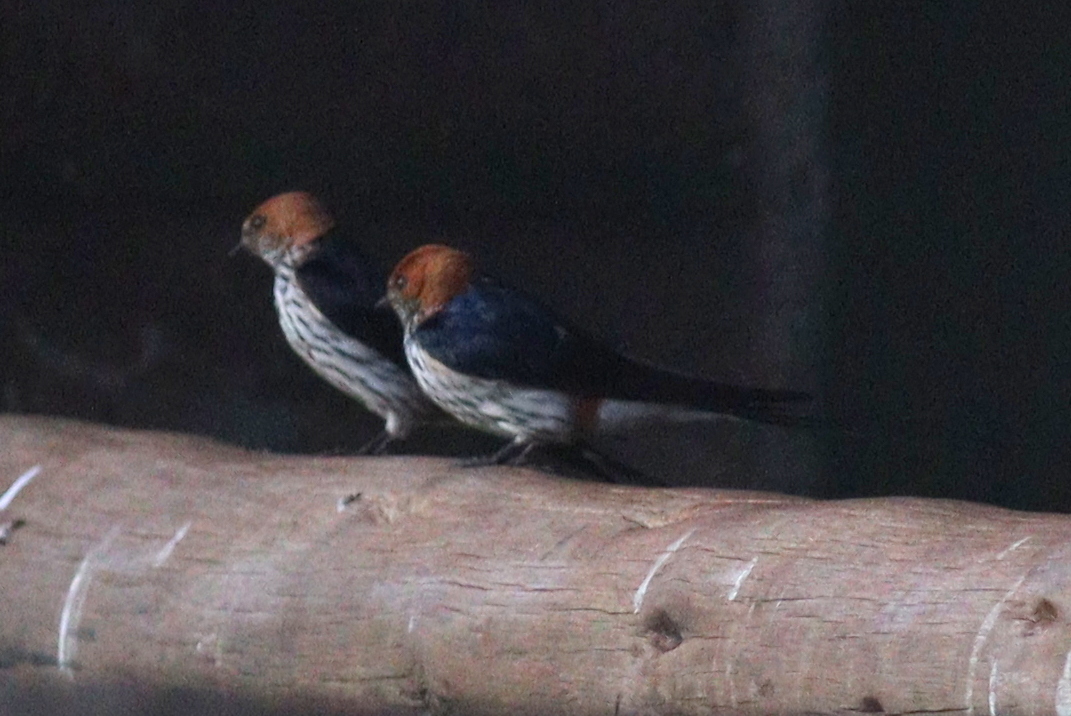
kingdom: Animalia
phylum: Chordata
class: Aves
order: Passeriformes
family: Hirundinidae
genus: Cecropis
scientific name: Cecropis abyssinica
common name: Lesser striped-swallow
